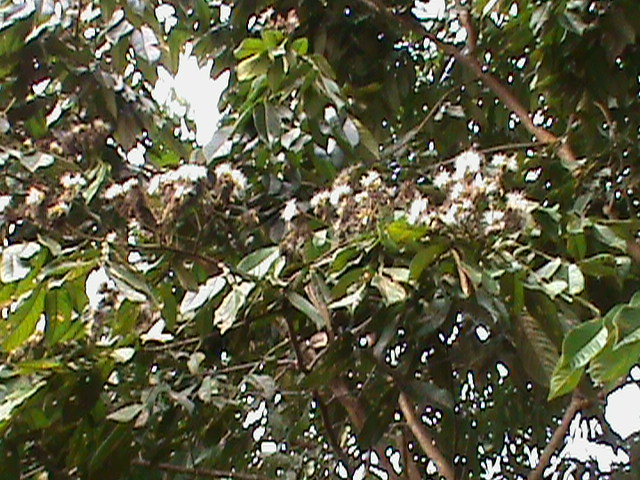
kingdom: Plantae
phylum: Tracheophyta
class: Magnoliopsida
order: Fabales
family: Fabaceae
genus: Inga
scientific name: Inga edulis
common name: Ice cream bean
